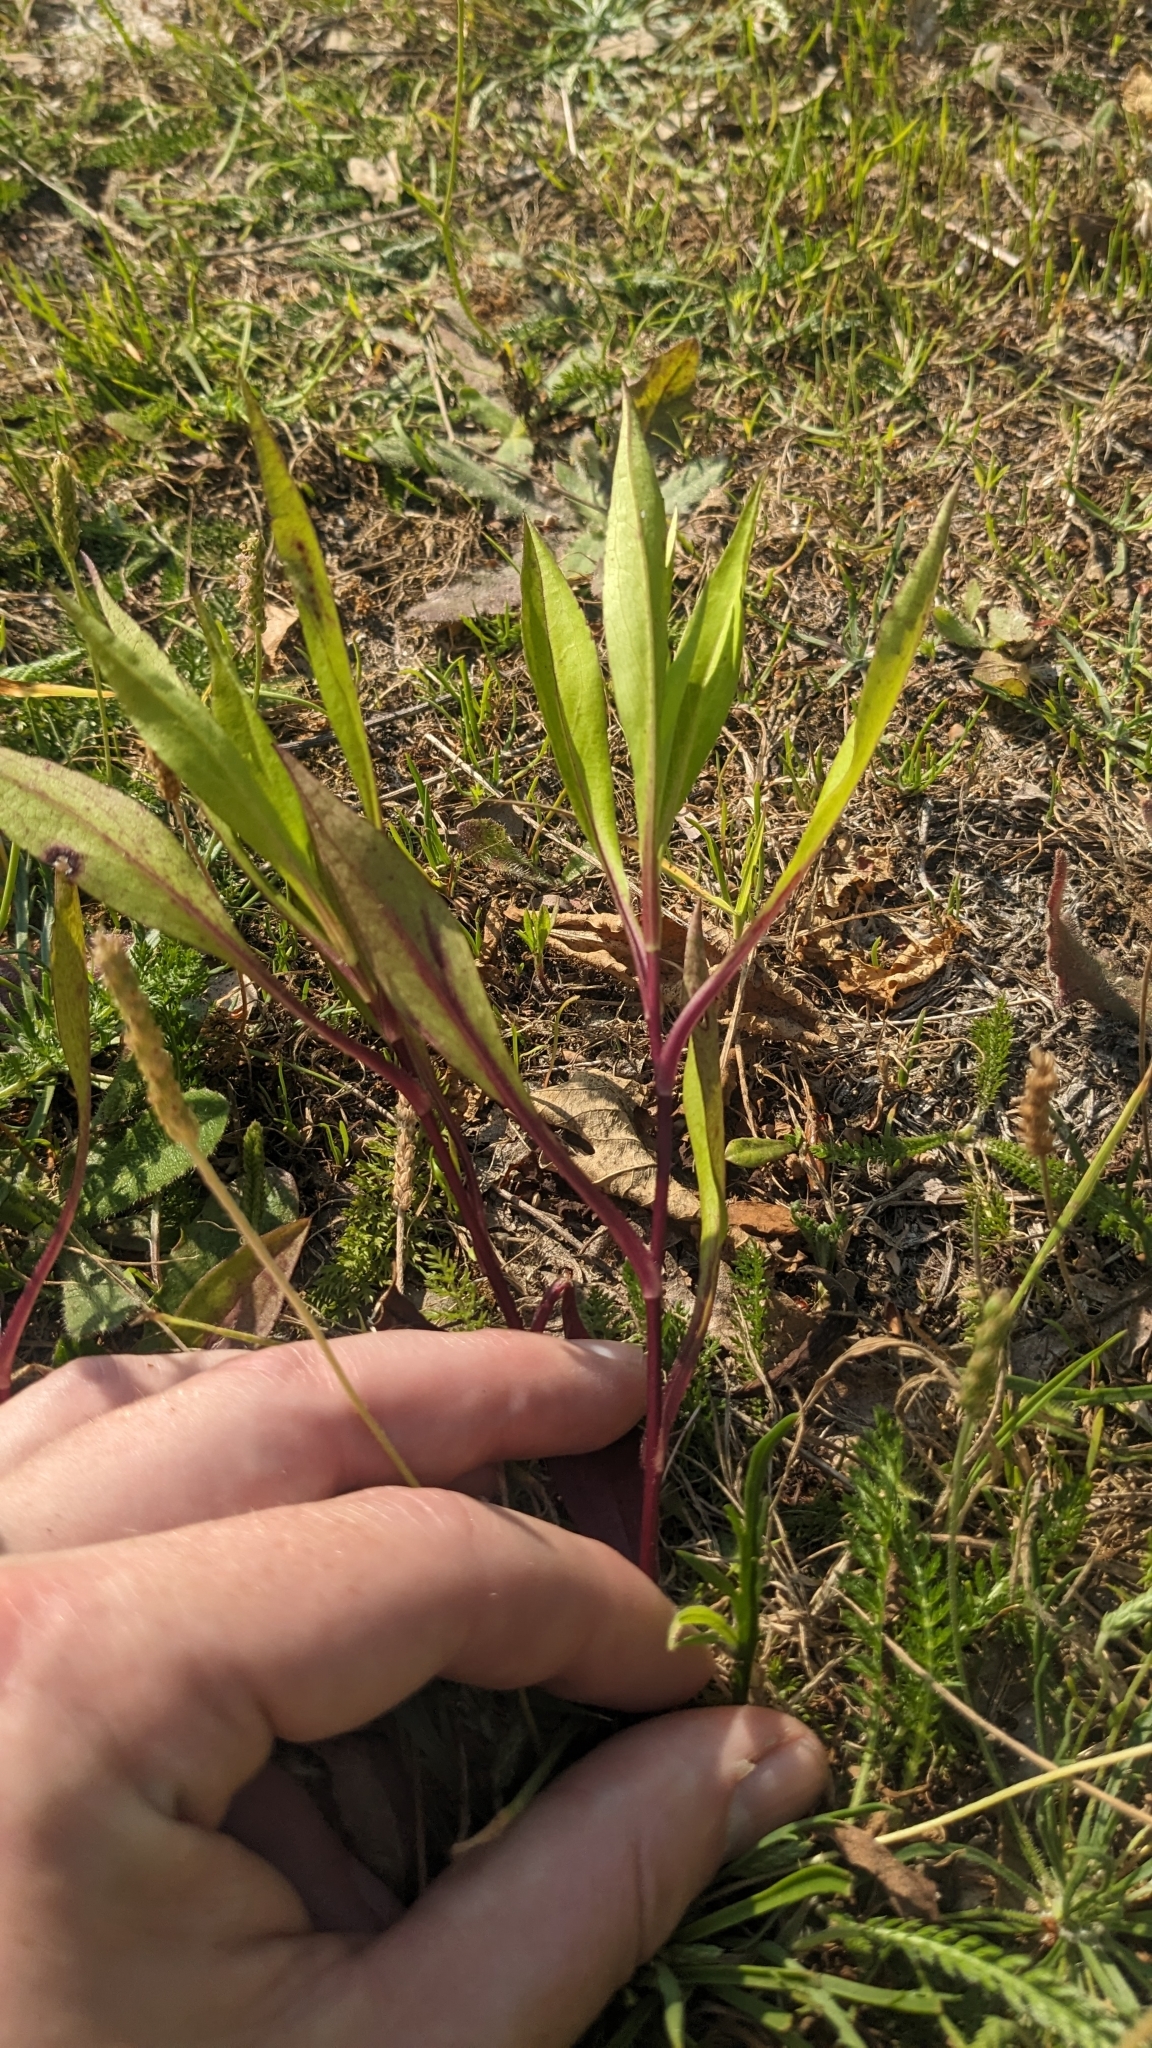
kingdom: Plantae
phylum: Tracheophyta
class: Magnoliopsida
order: Asterales
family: Asteraceae
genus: Tripolium
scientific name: Tripolium pannonicum
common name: Sea aster
